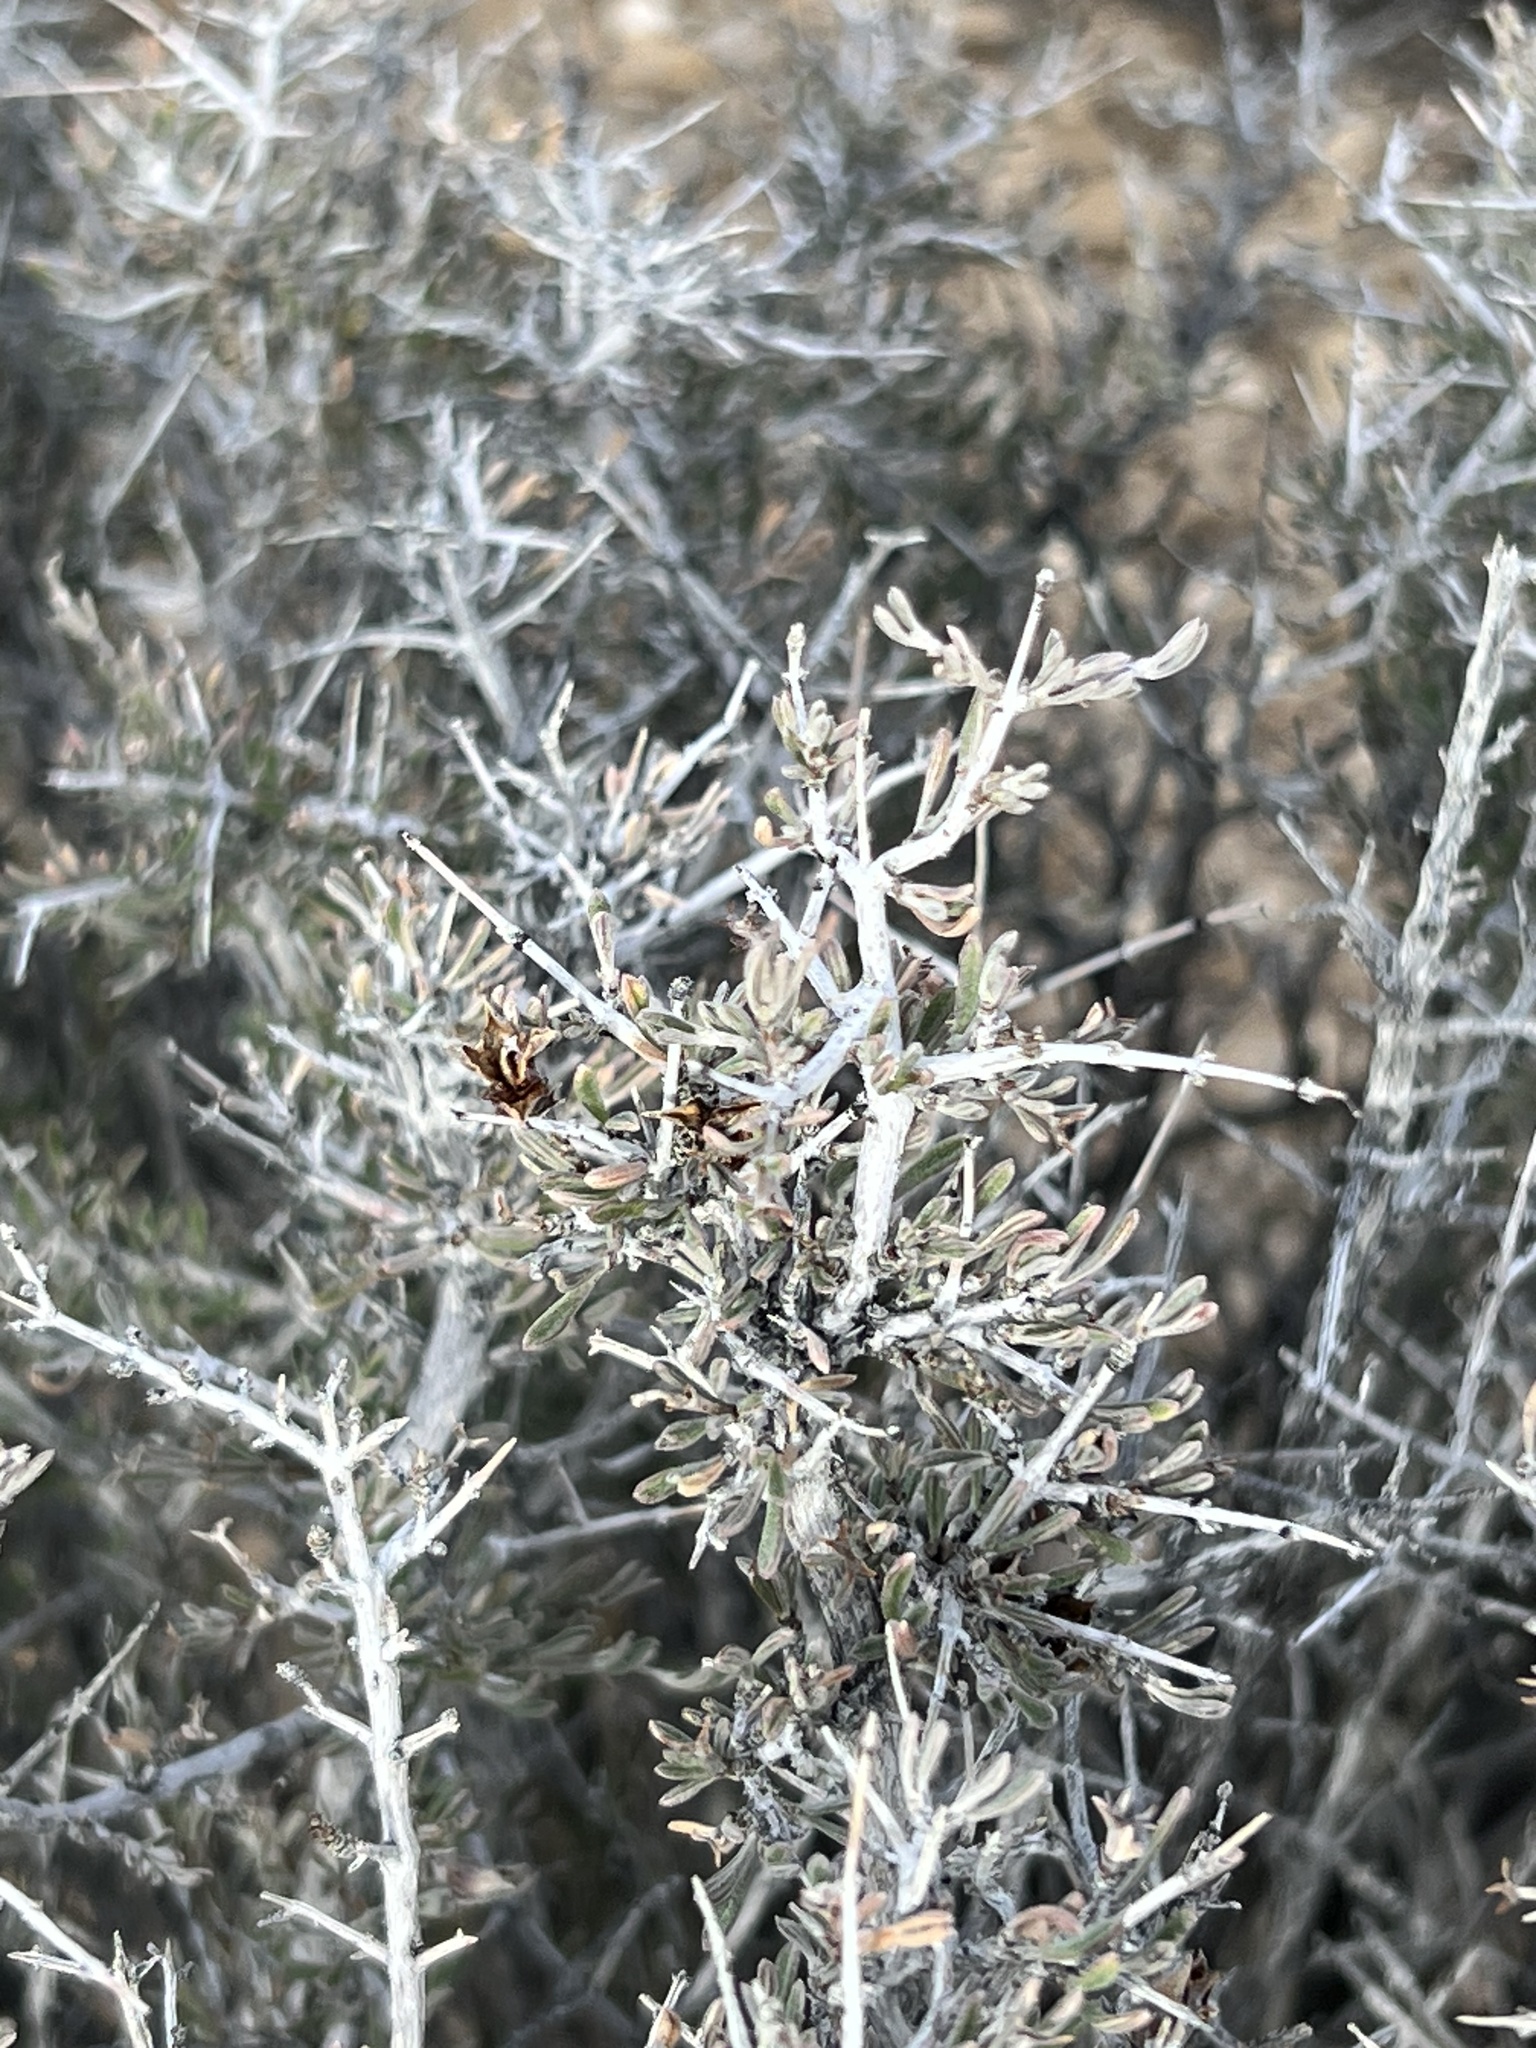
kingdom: Plantae
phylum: Tracheophyta
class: Magnoliopsida
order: Rosales
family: Rosaceae
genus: Coleogyne
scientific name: Coleogyne ramosissima
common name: Blackbrush
